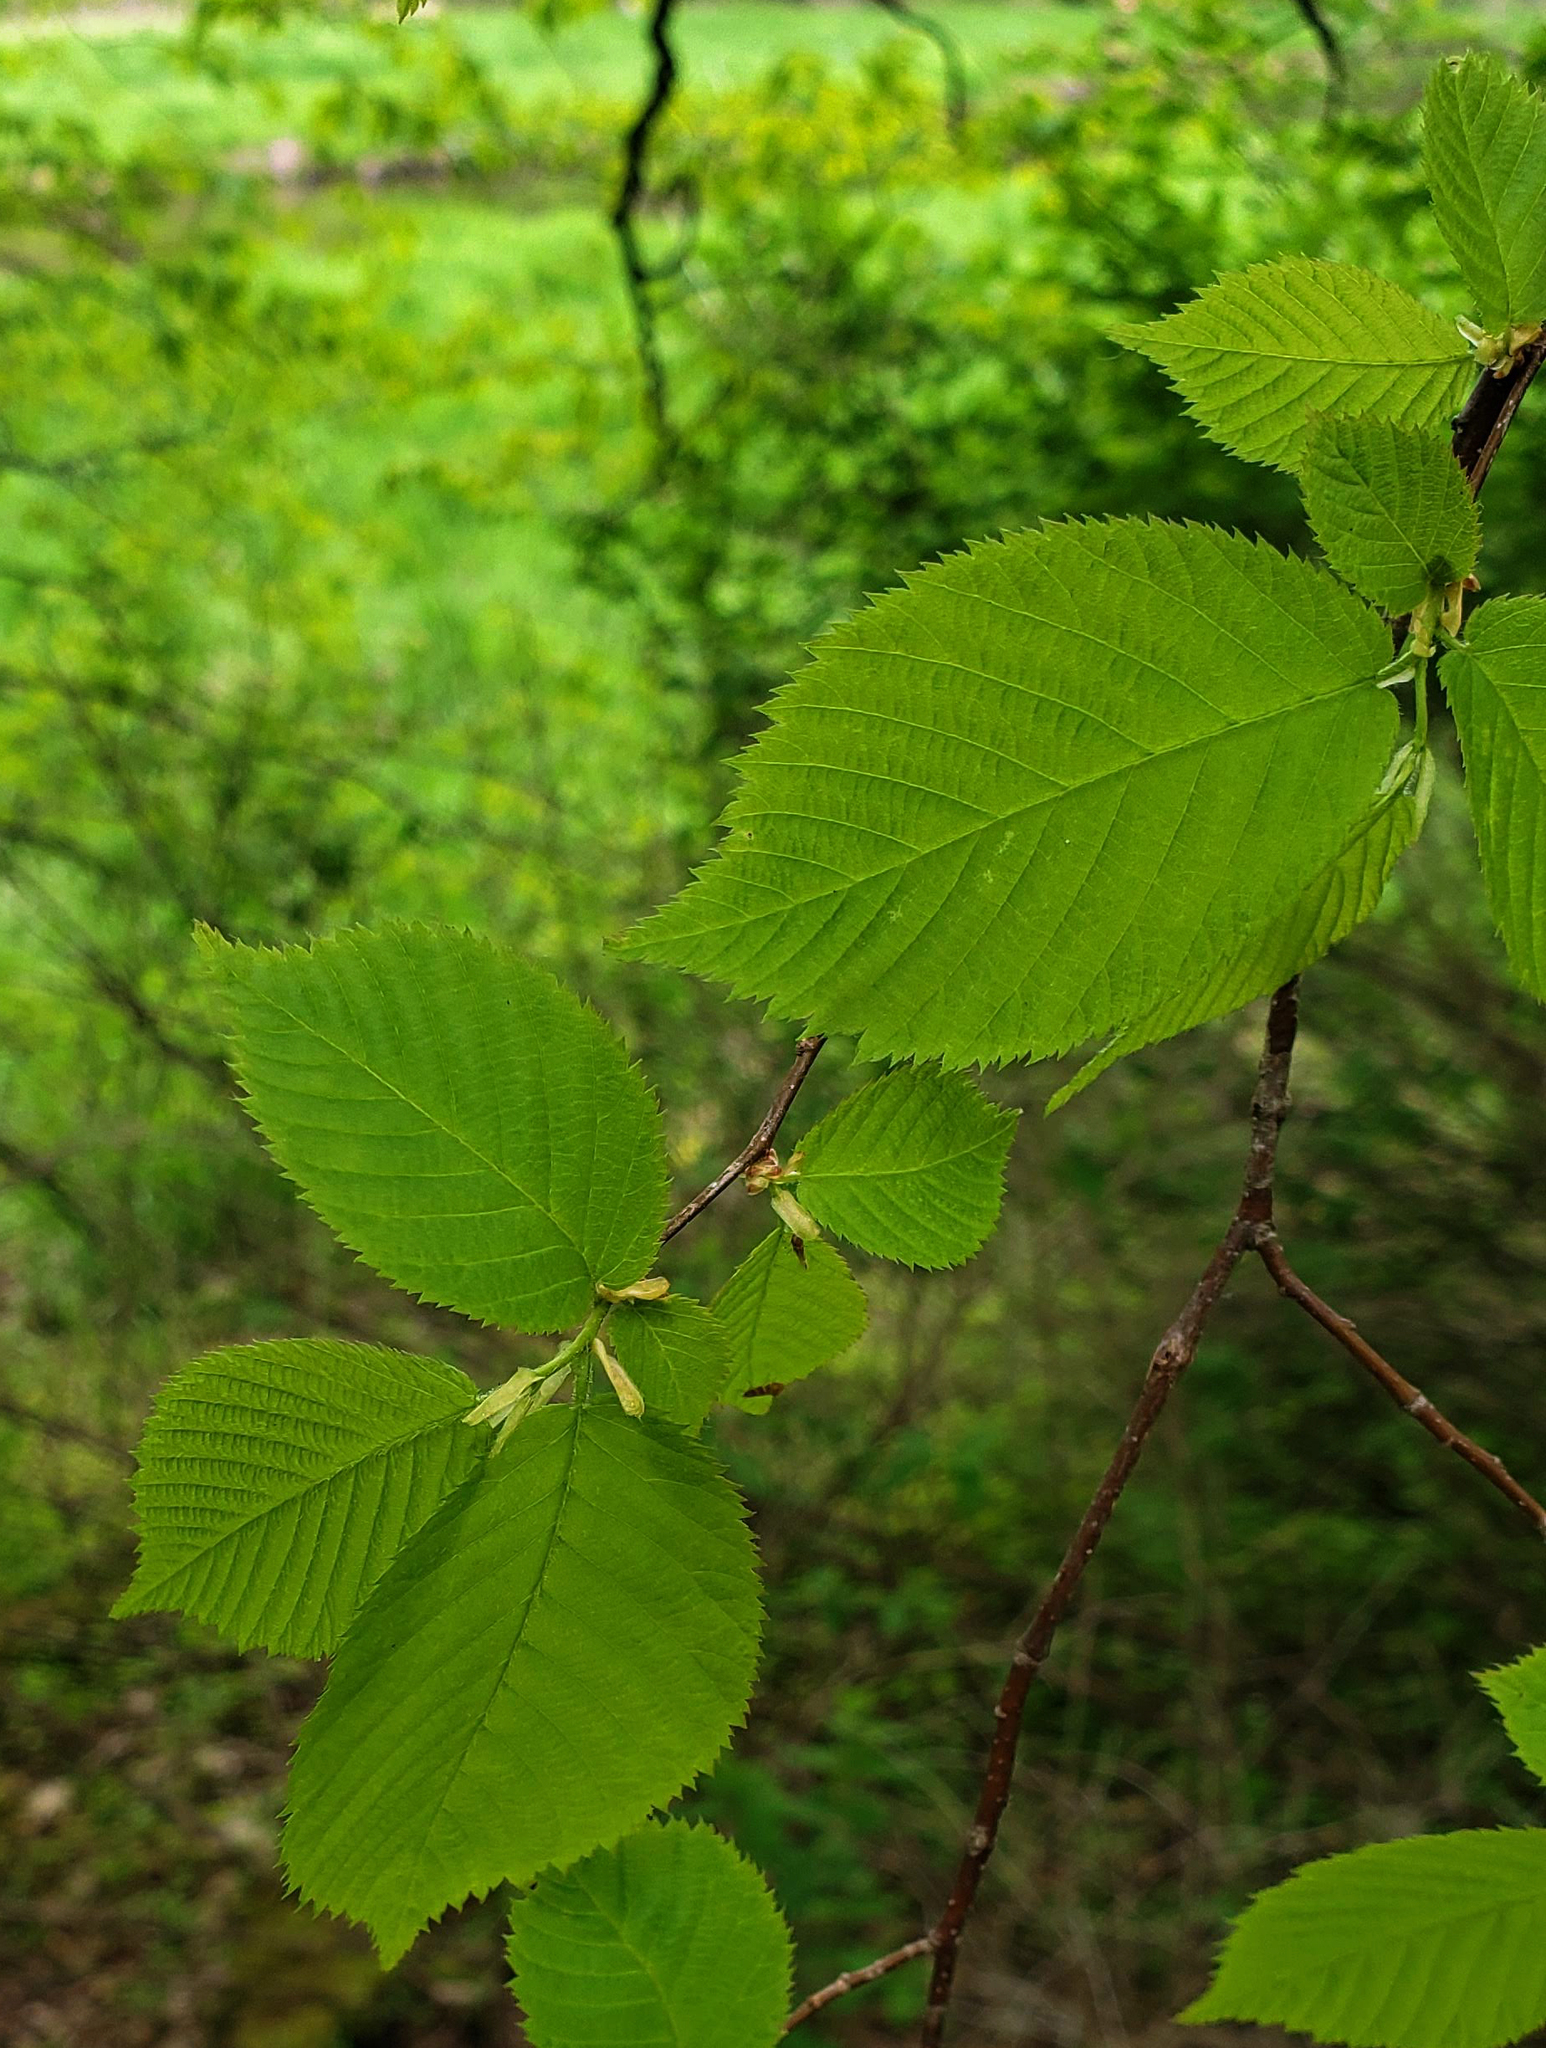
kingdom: Plantae
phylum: Tracheophyta
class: Magnoliopsida
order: Fagales
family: Betulaceae
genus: Ostrya
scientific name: Ostrya virginiana
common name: Ironwood
